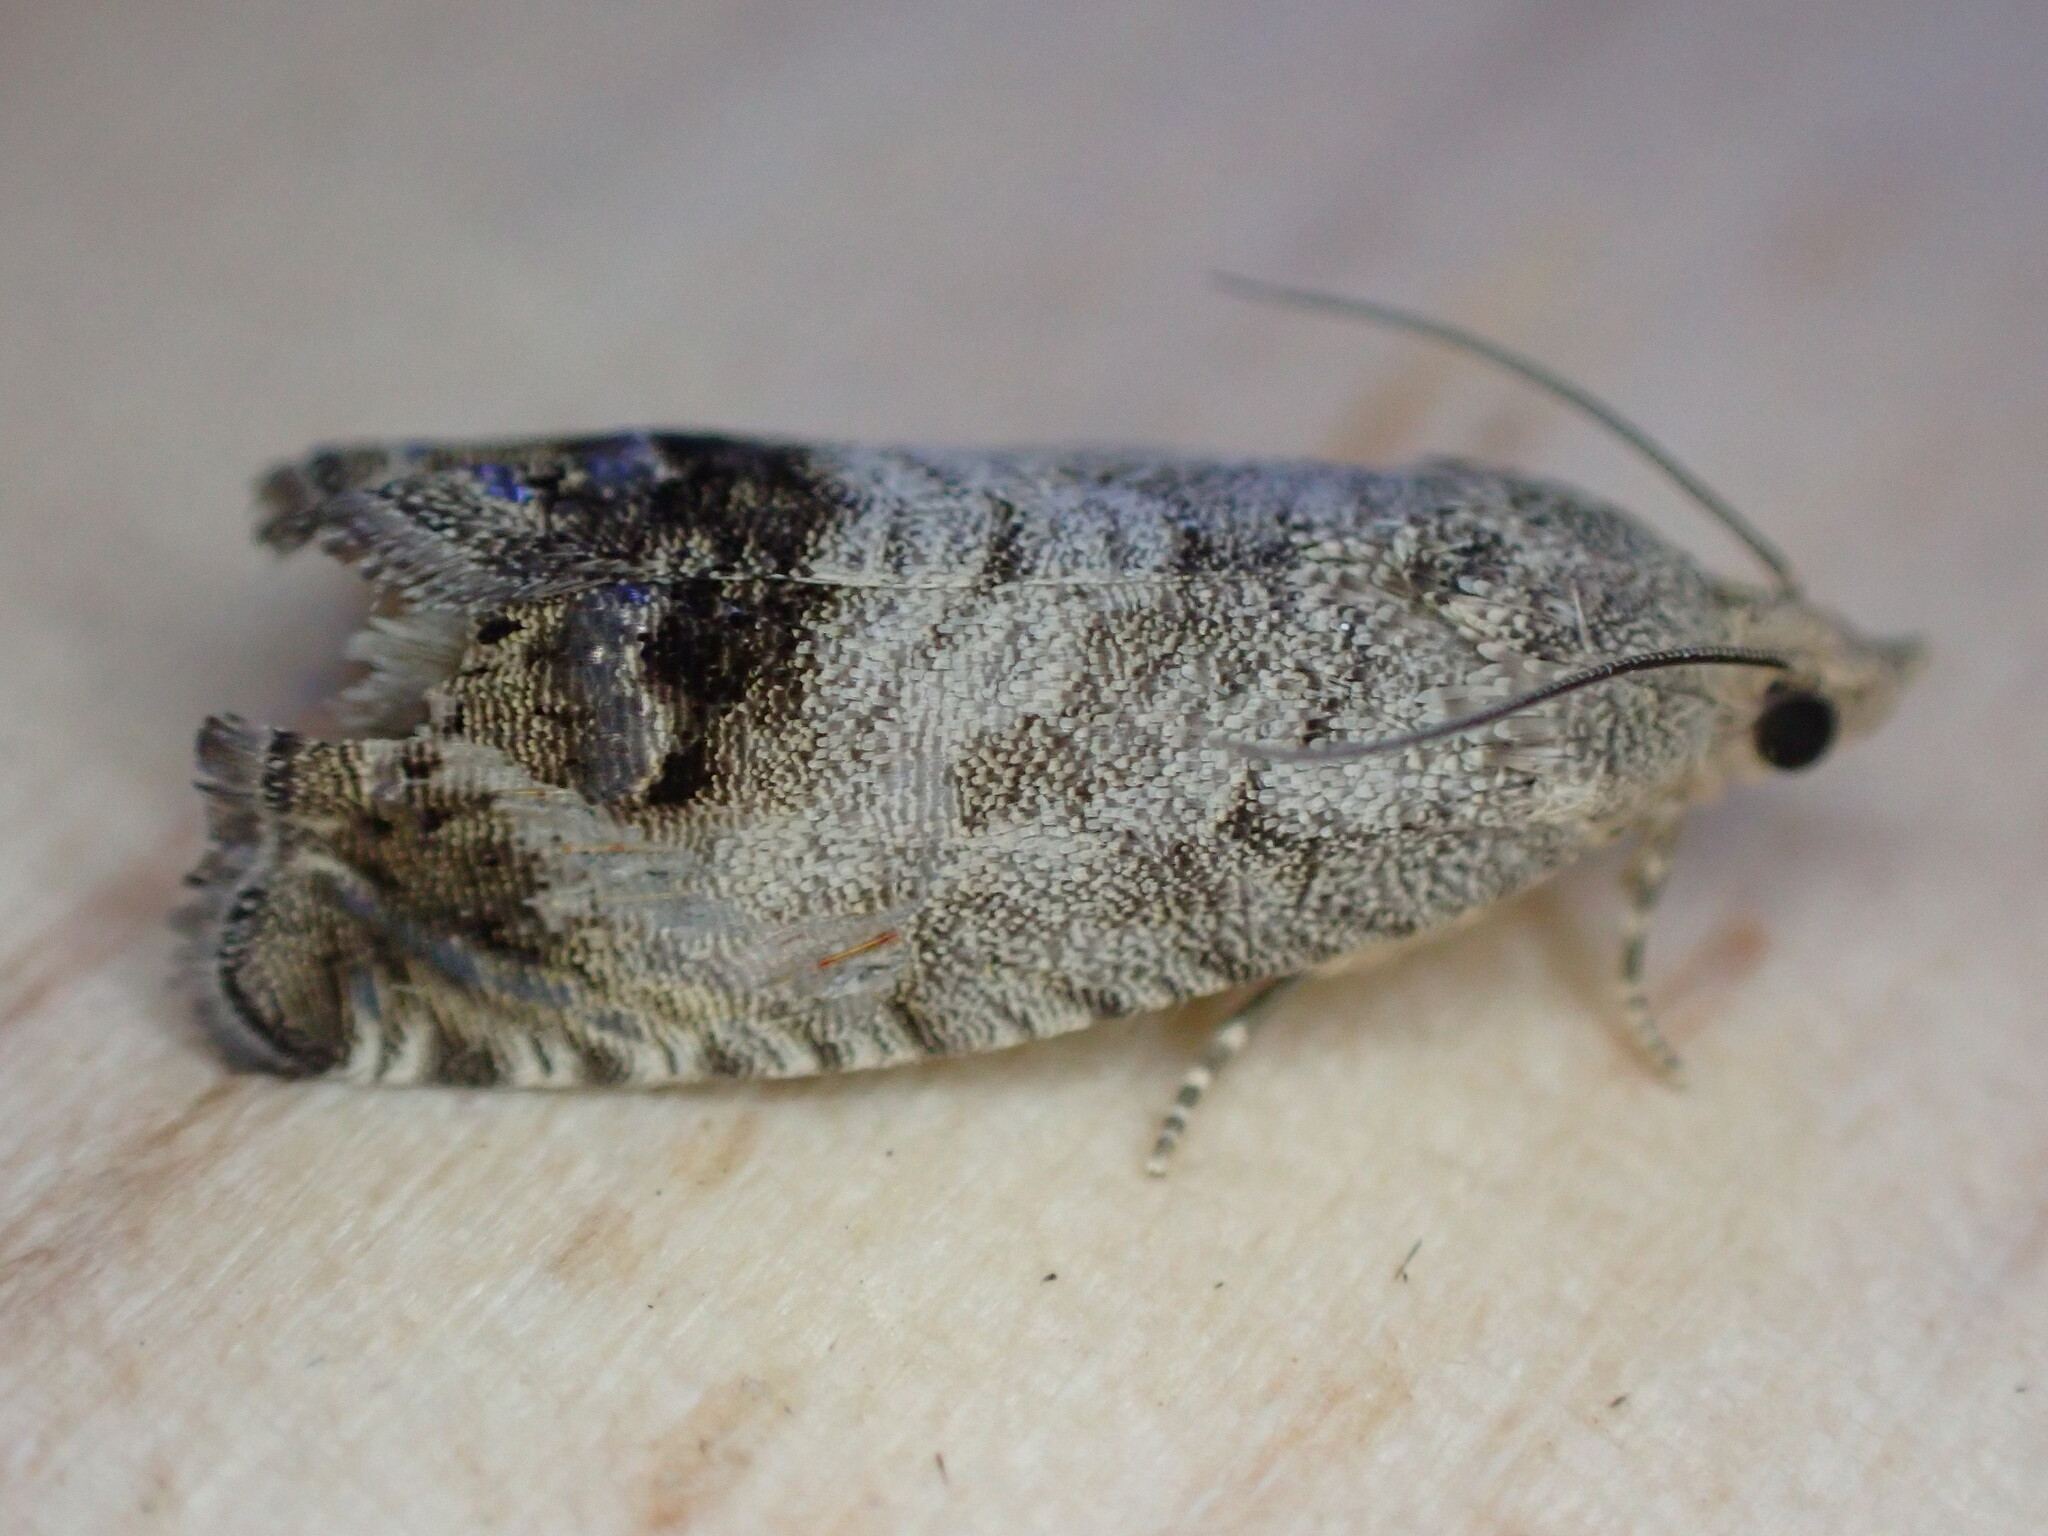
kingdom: Animalia
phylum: Arthropoda
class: Insecta
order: Lepidoptera
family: Tortricidae
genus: Cydia
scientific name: Cydia splendana
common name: De: kastanienwickler, eichenwickler es: oruga de la castaña fr: carpocapse des châtaignes it: cidia o tortrice tardiva delle castagne pt: bichado das castanhas gb: acorn moth, chestnut fruit tortrix
